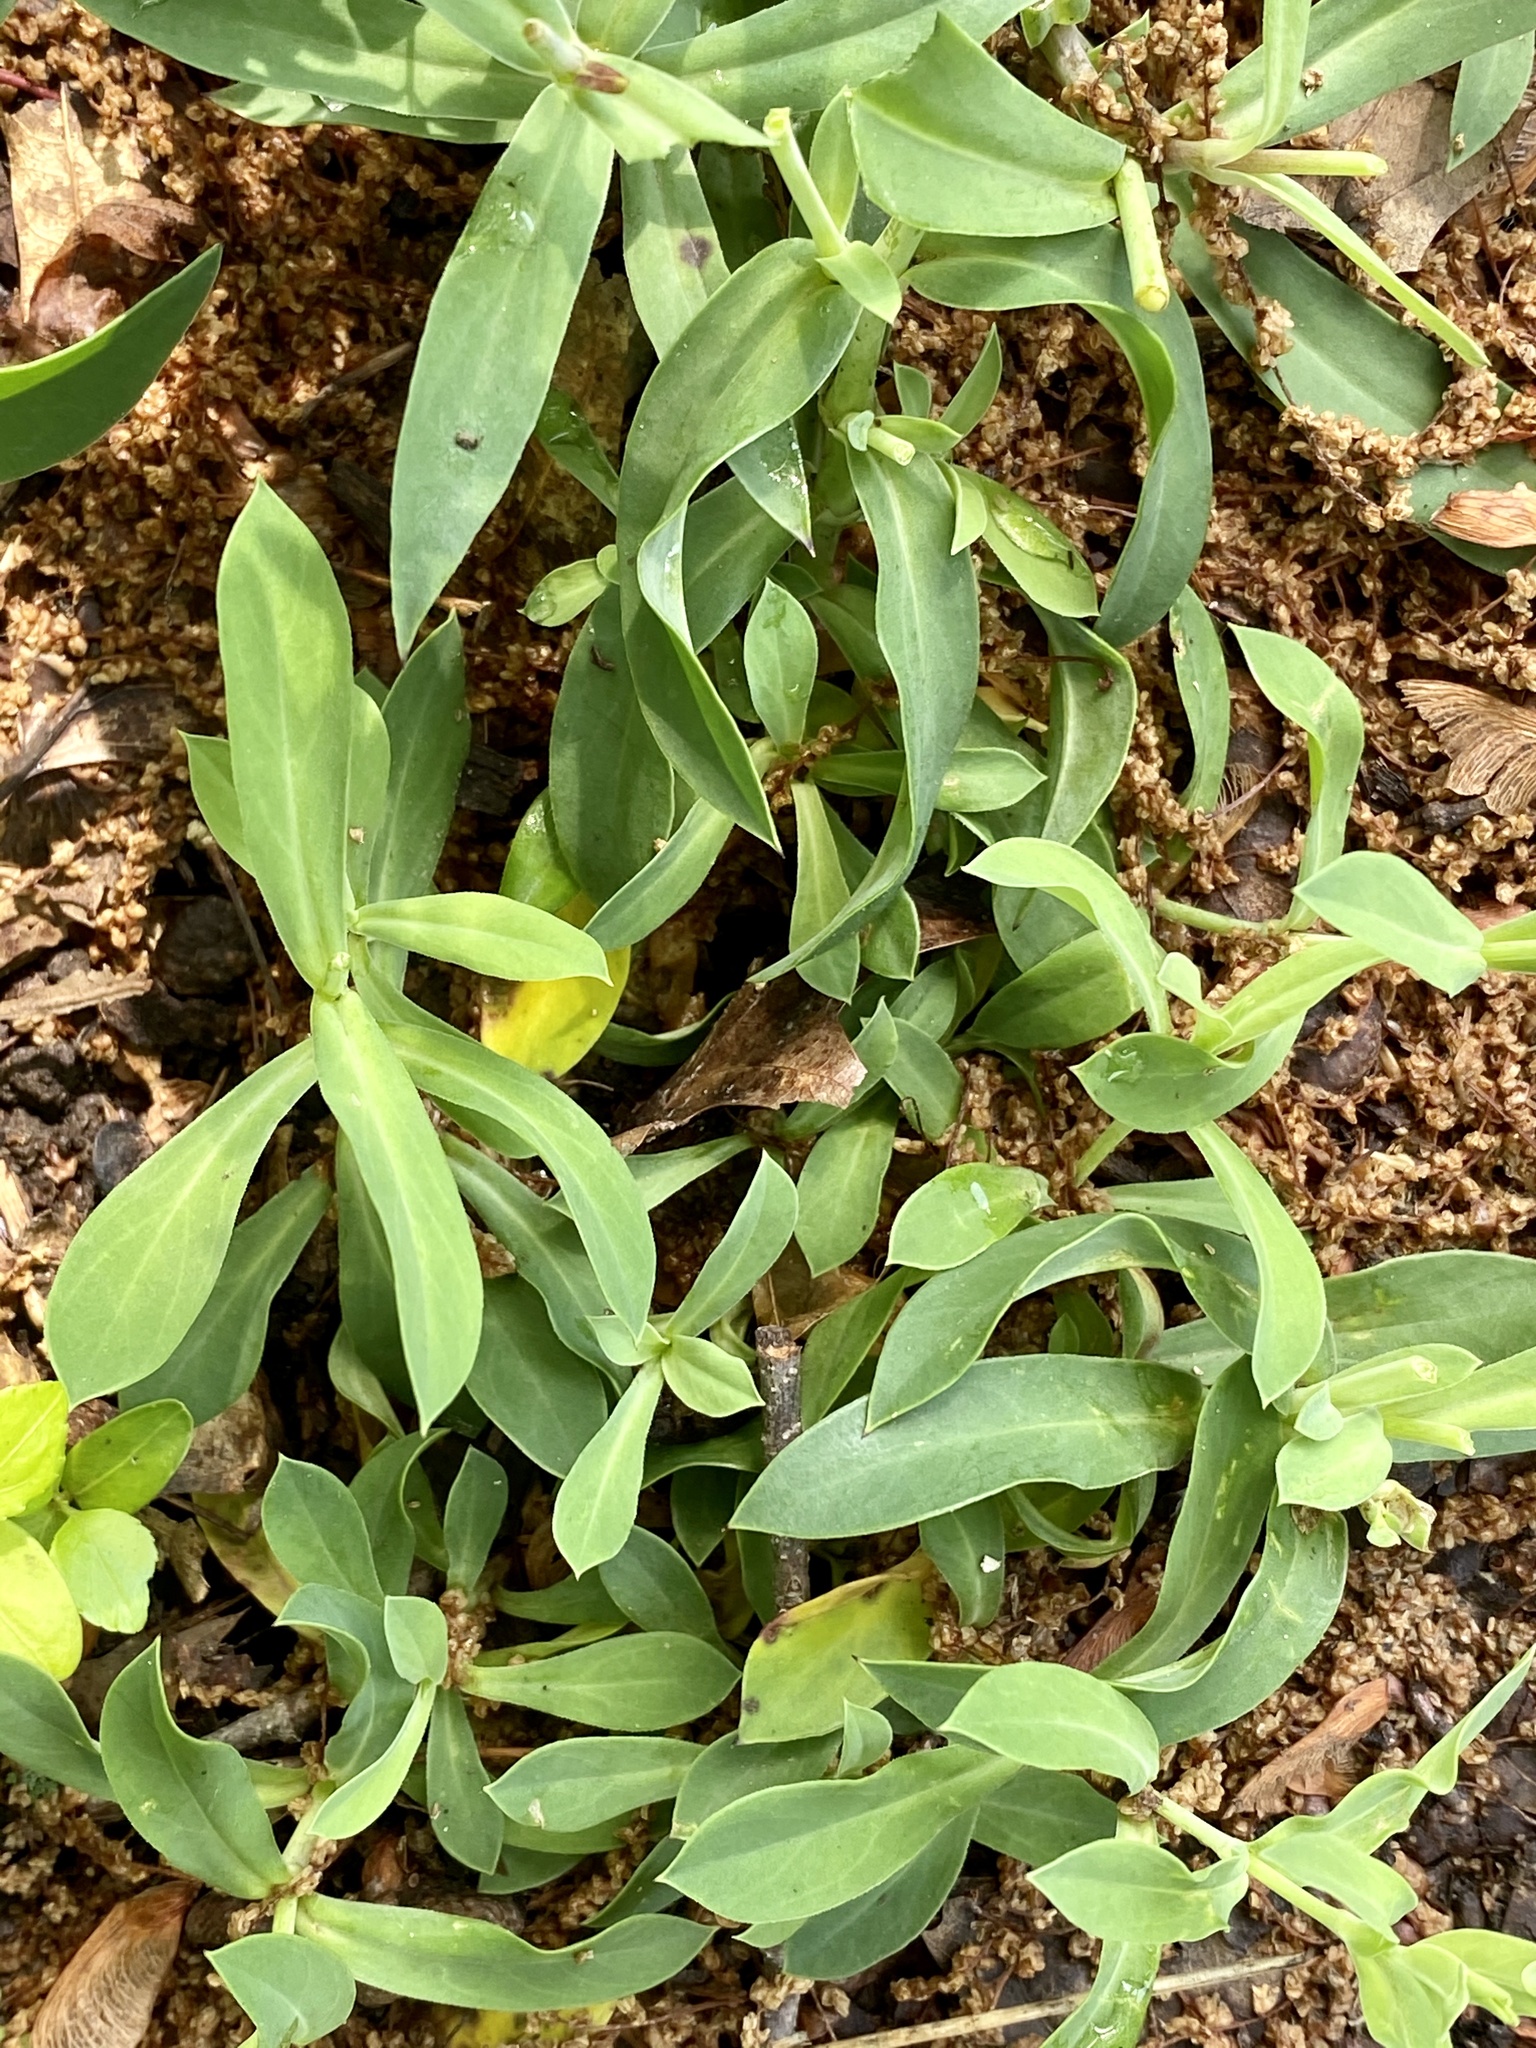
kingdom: Plantae
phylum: Tracheophyta
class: Magnoliopsida
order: Caryophyllales
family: Caryophyllaceae
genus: Silene
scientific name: Silene vulgaris
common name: Bladder campion
